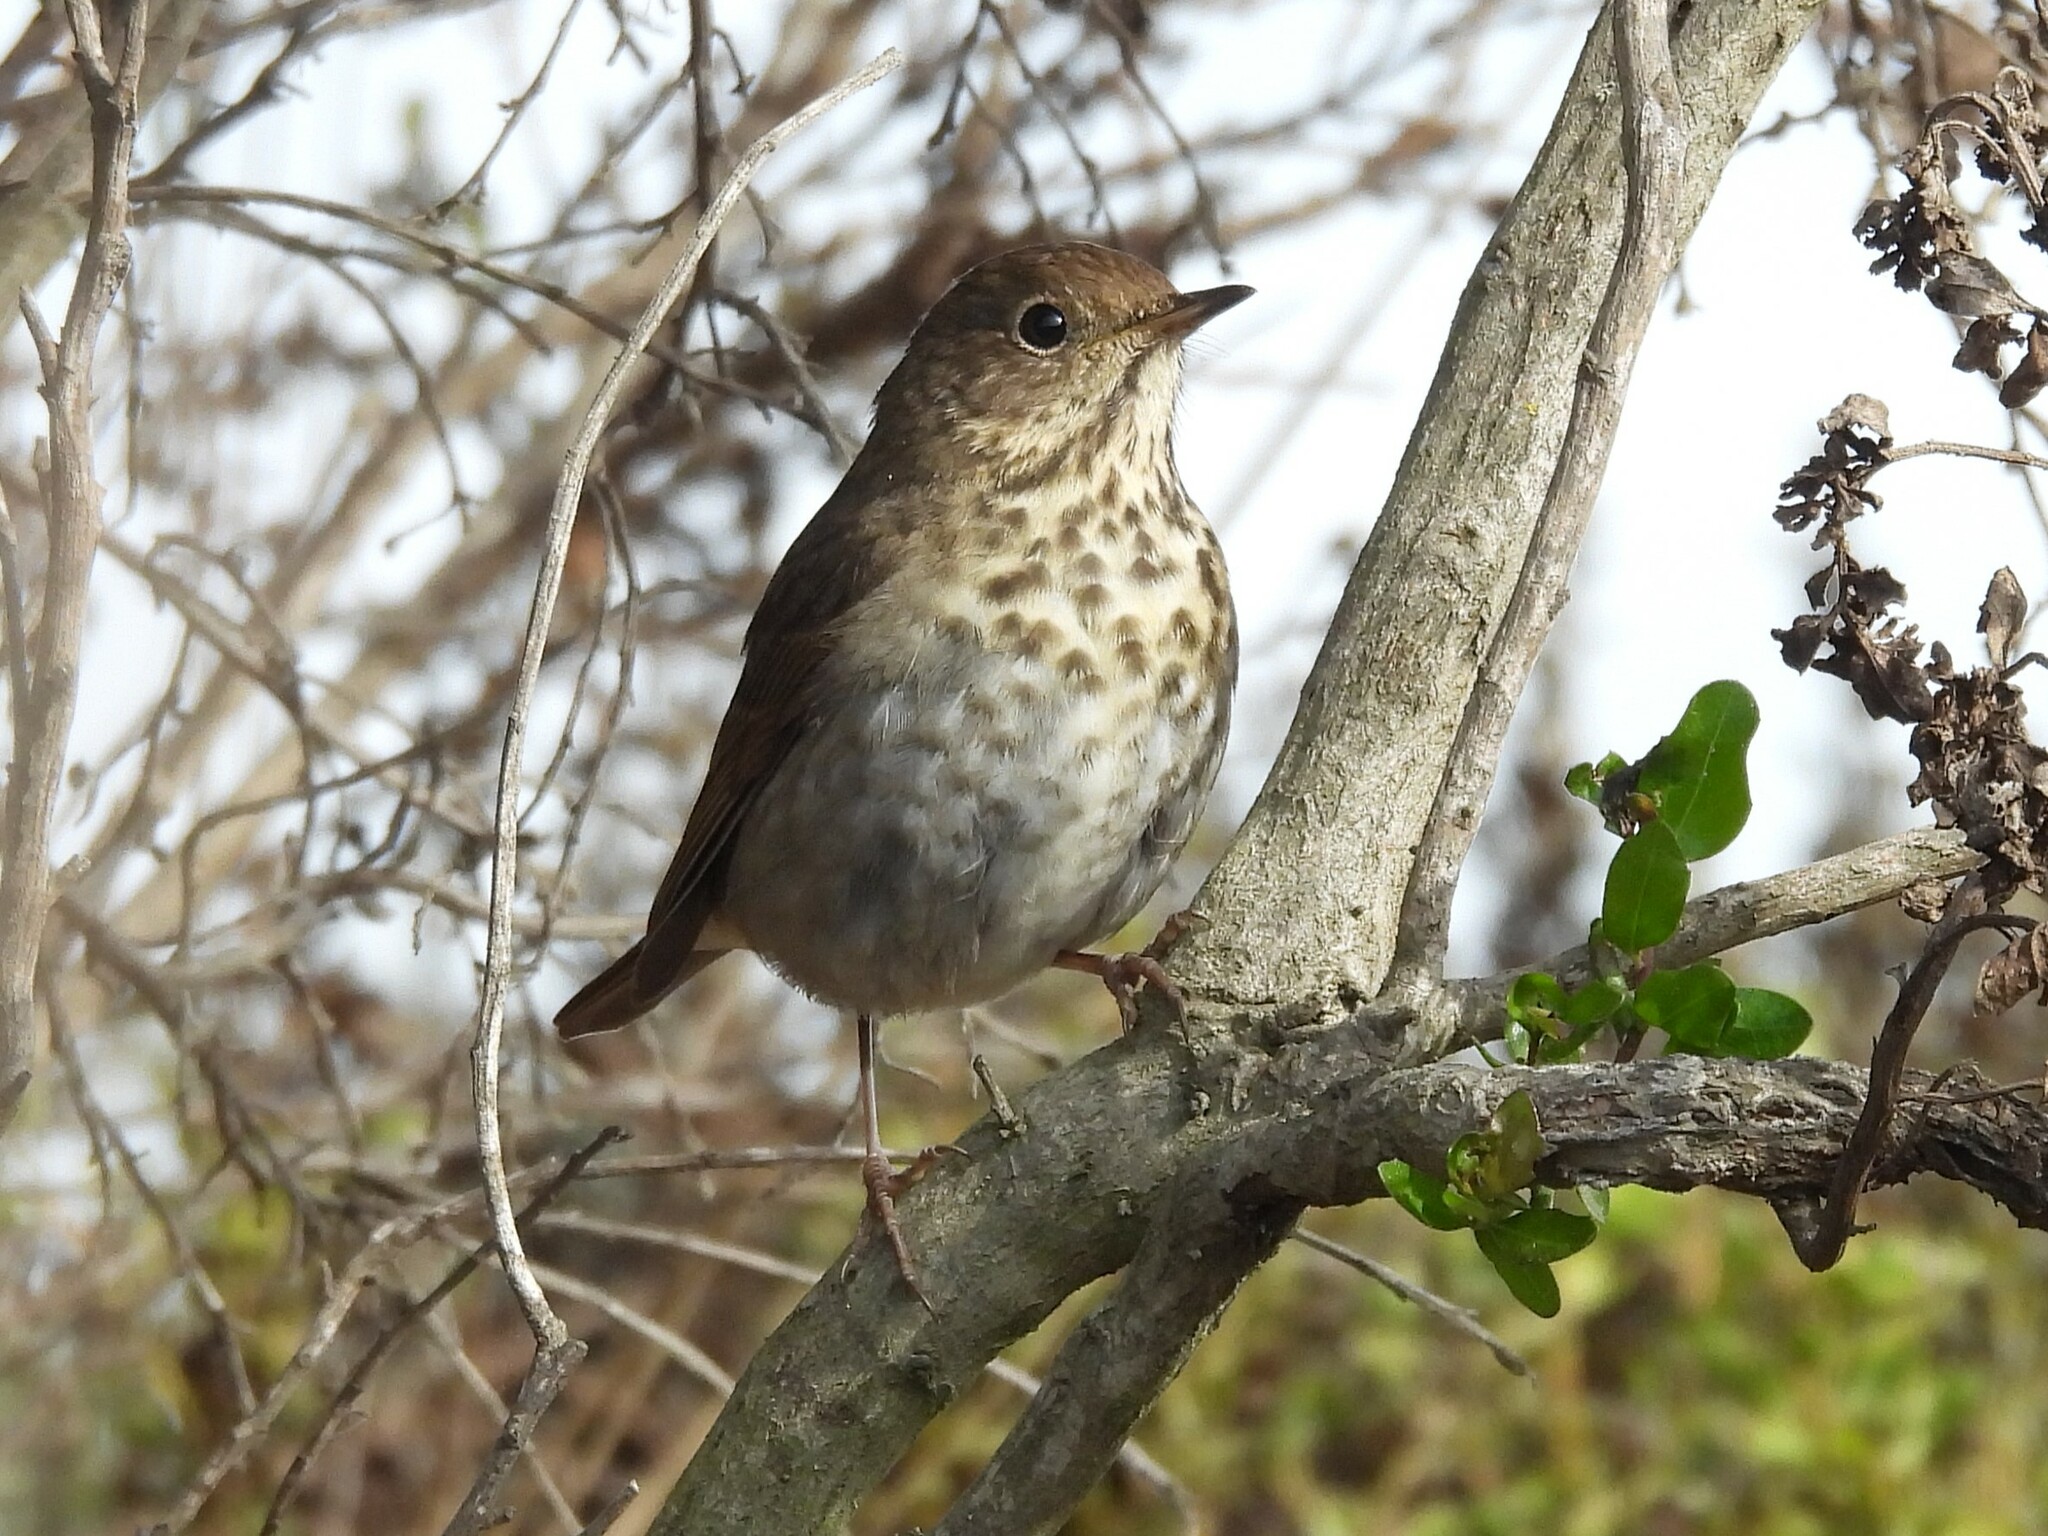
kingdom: Animalia
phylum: Chordata
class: Aves
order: Passeriformes
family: Turdidae
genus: Catharus
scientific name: Catharus guttatus
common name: Hermit thrush
